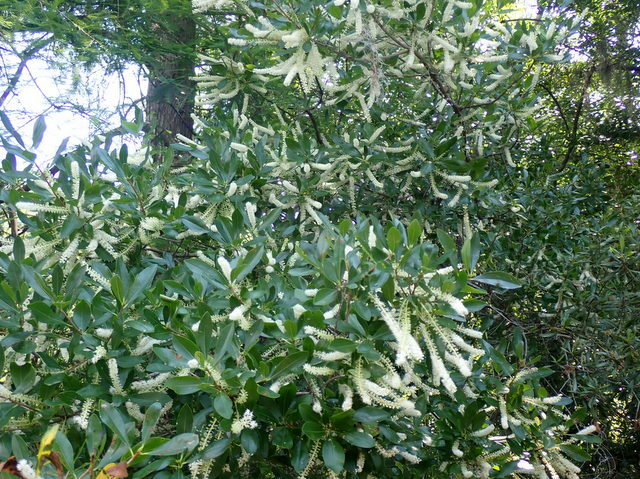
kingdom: Plantae
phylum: Tracheophyta
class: Magnoliopsida
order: Ericales
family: Cyrillaceae
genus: Cyrilla
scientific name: Cyrilla racemiflora
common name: Black titi
